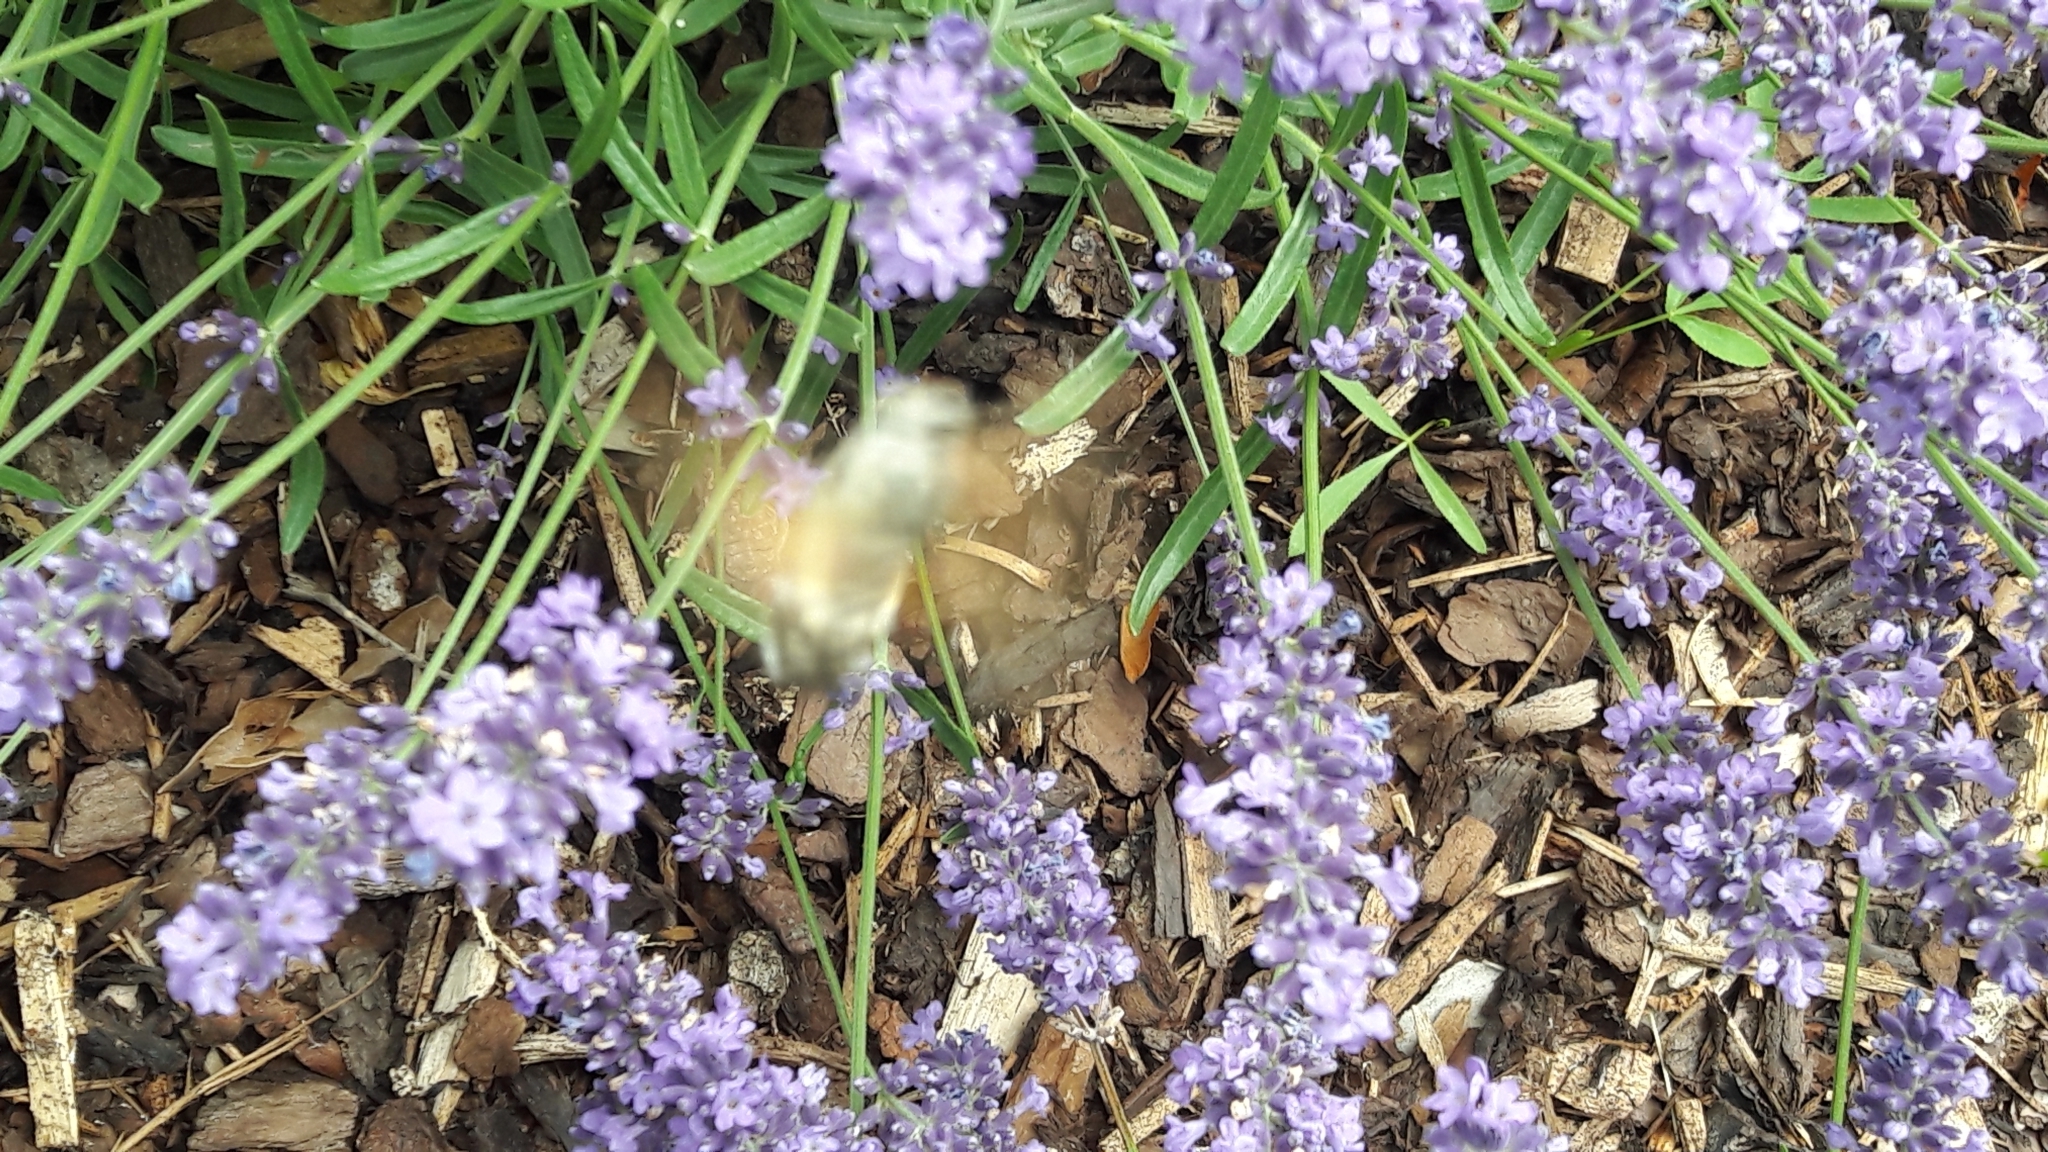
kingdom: Animalia
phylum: Arthropoda
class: Insecta
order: Lepidoptera
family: Sphingidae
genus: Macroglossum
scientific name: Macroglossum stellatarum
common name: Humming-bird hawk-moth
